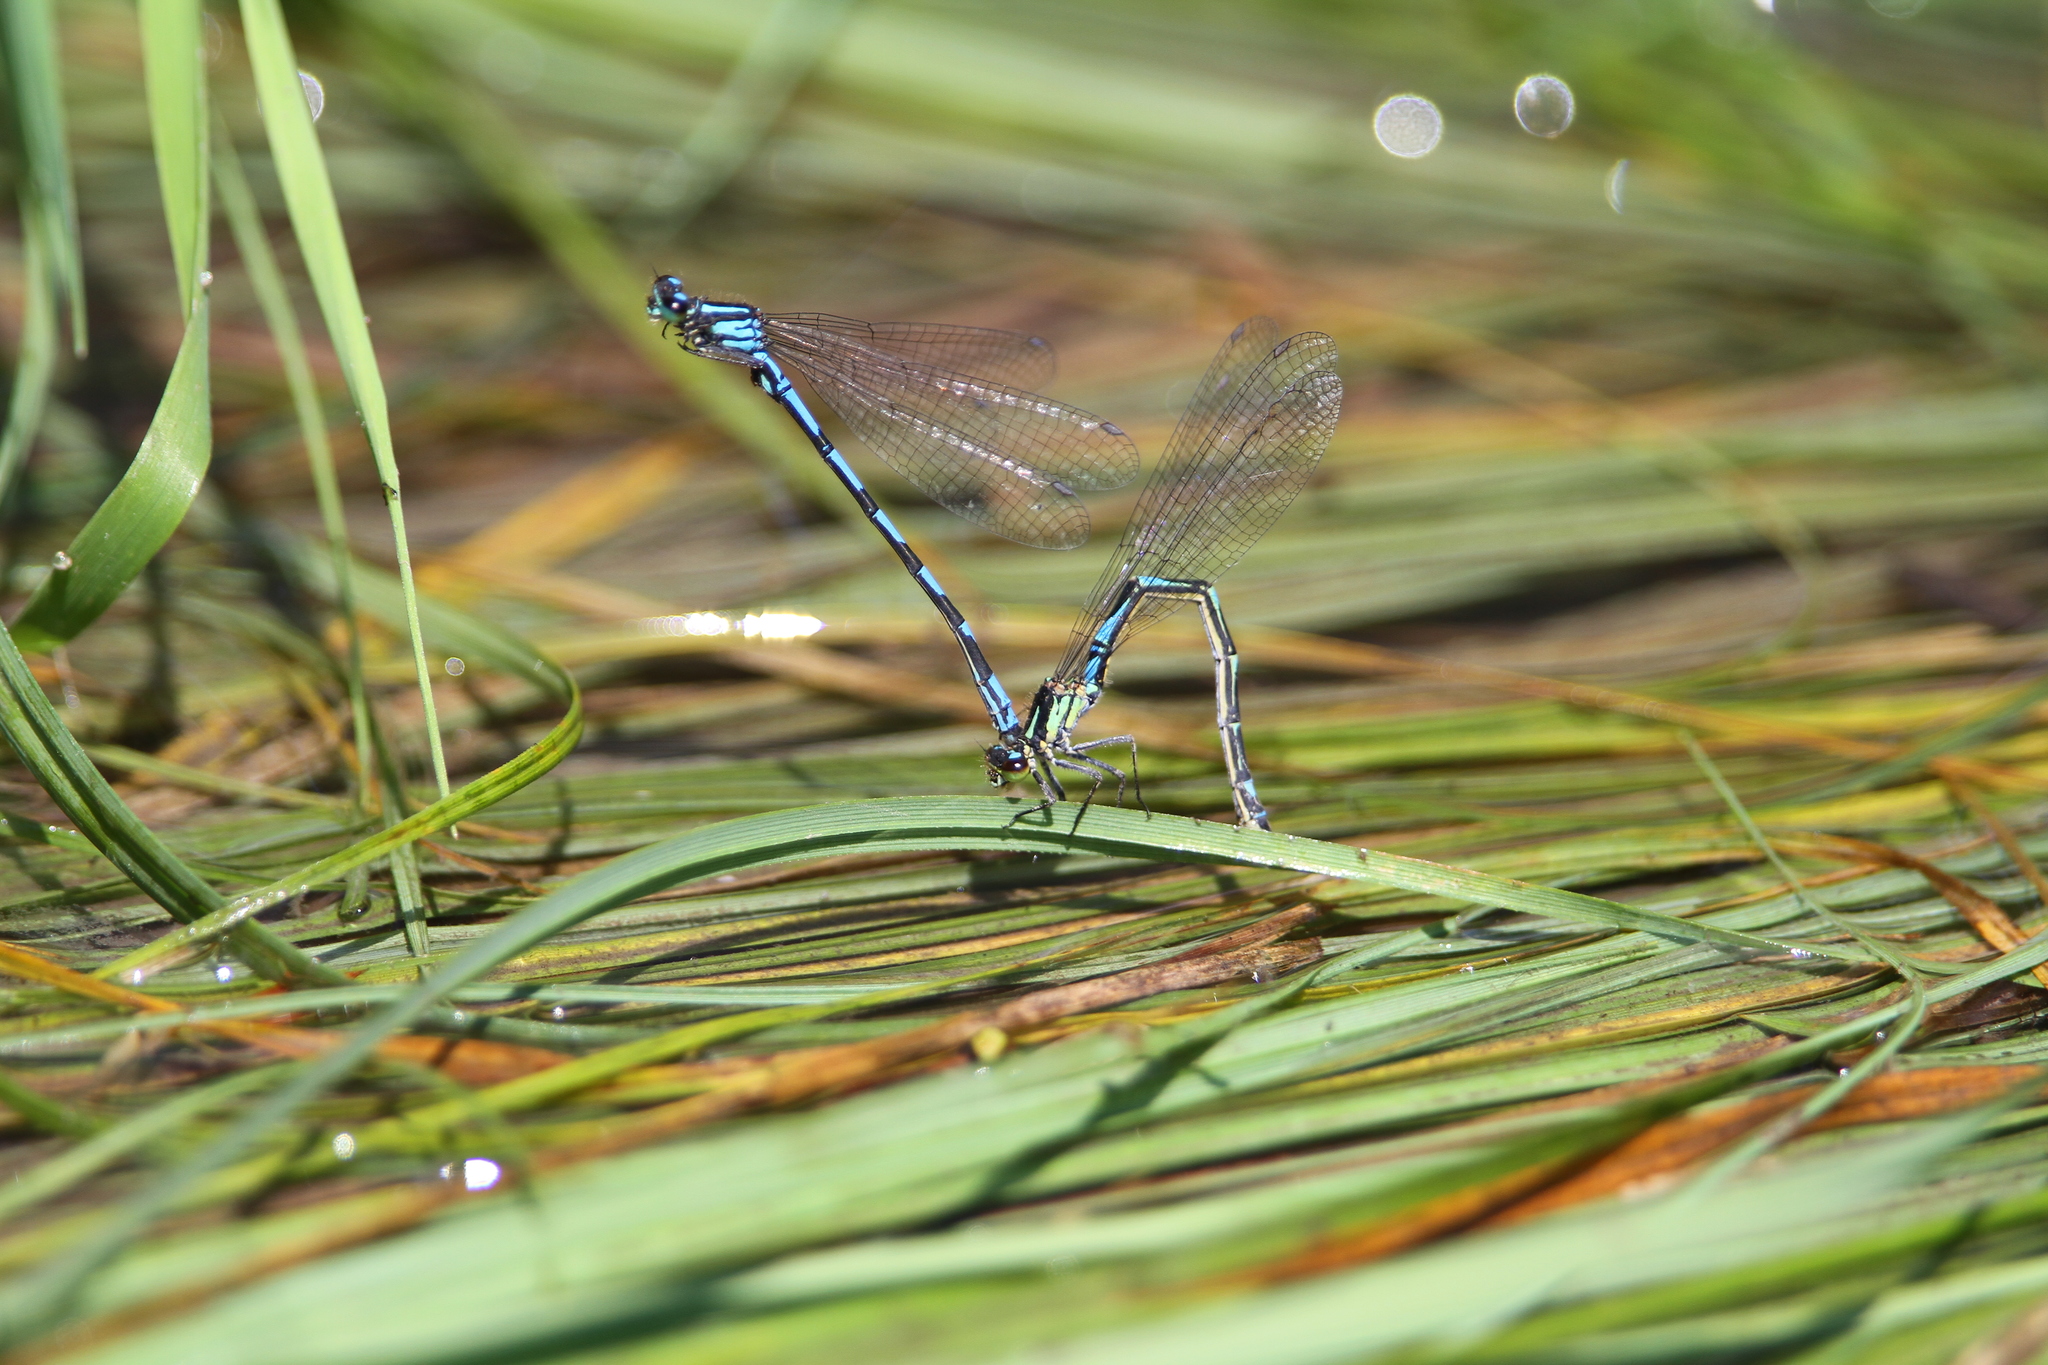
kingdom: Animalia
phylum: Arthropoda
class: Insecta
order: Odonata
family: Coenagrionidae
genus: Coenagrion
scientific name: Coenagrion hylas
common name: Frey's damselfly
